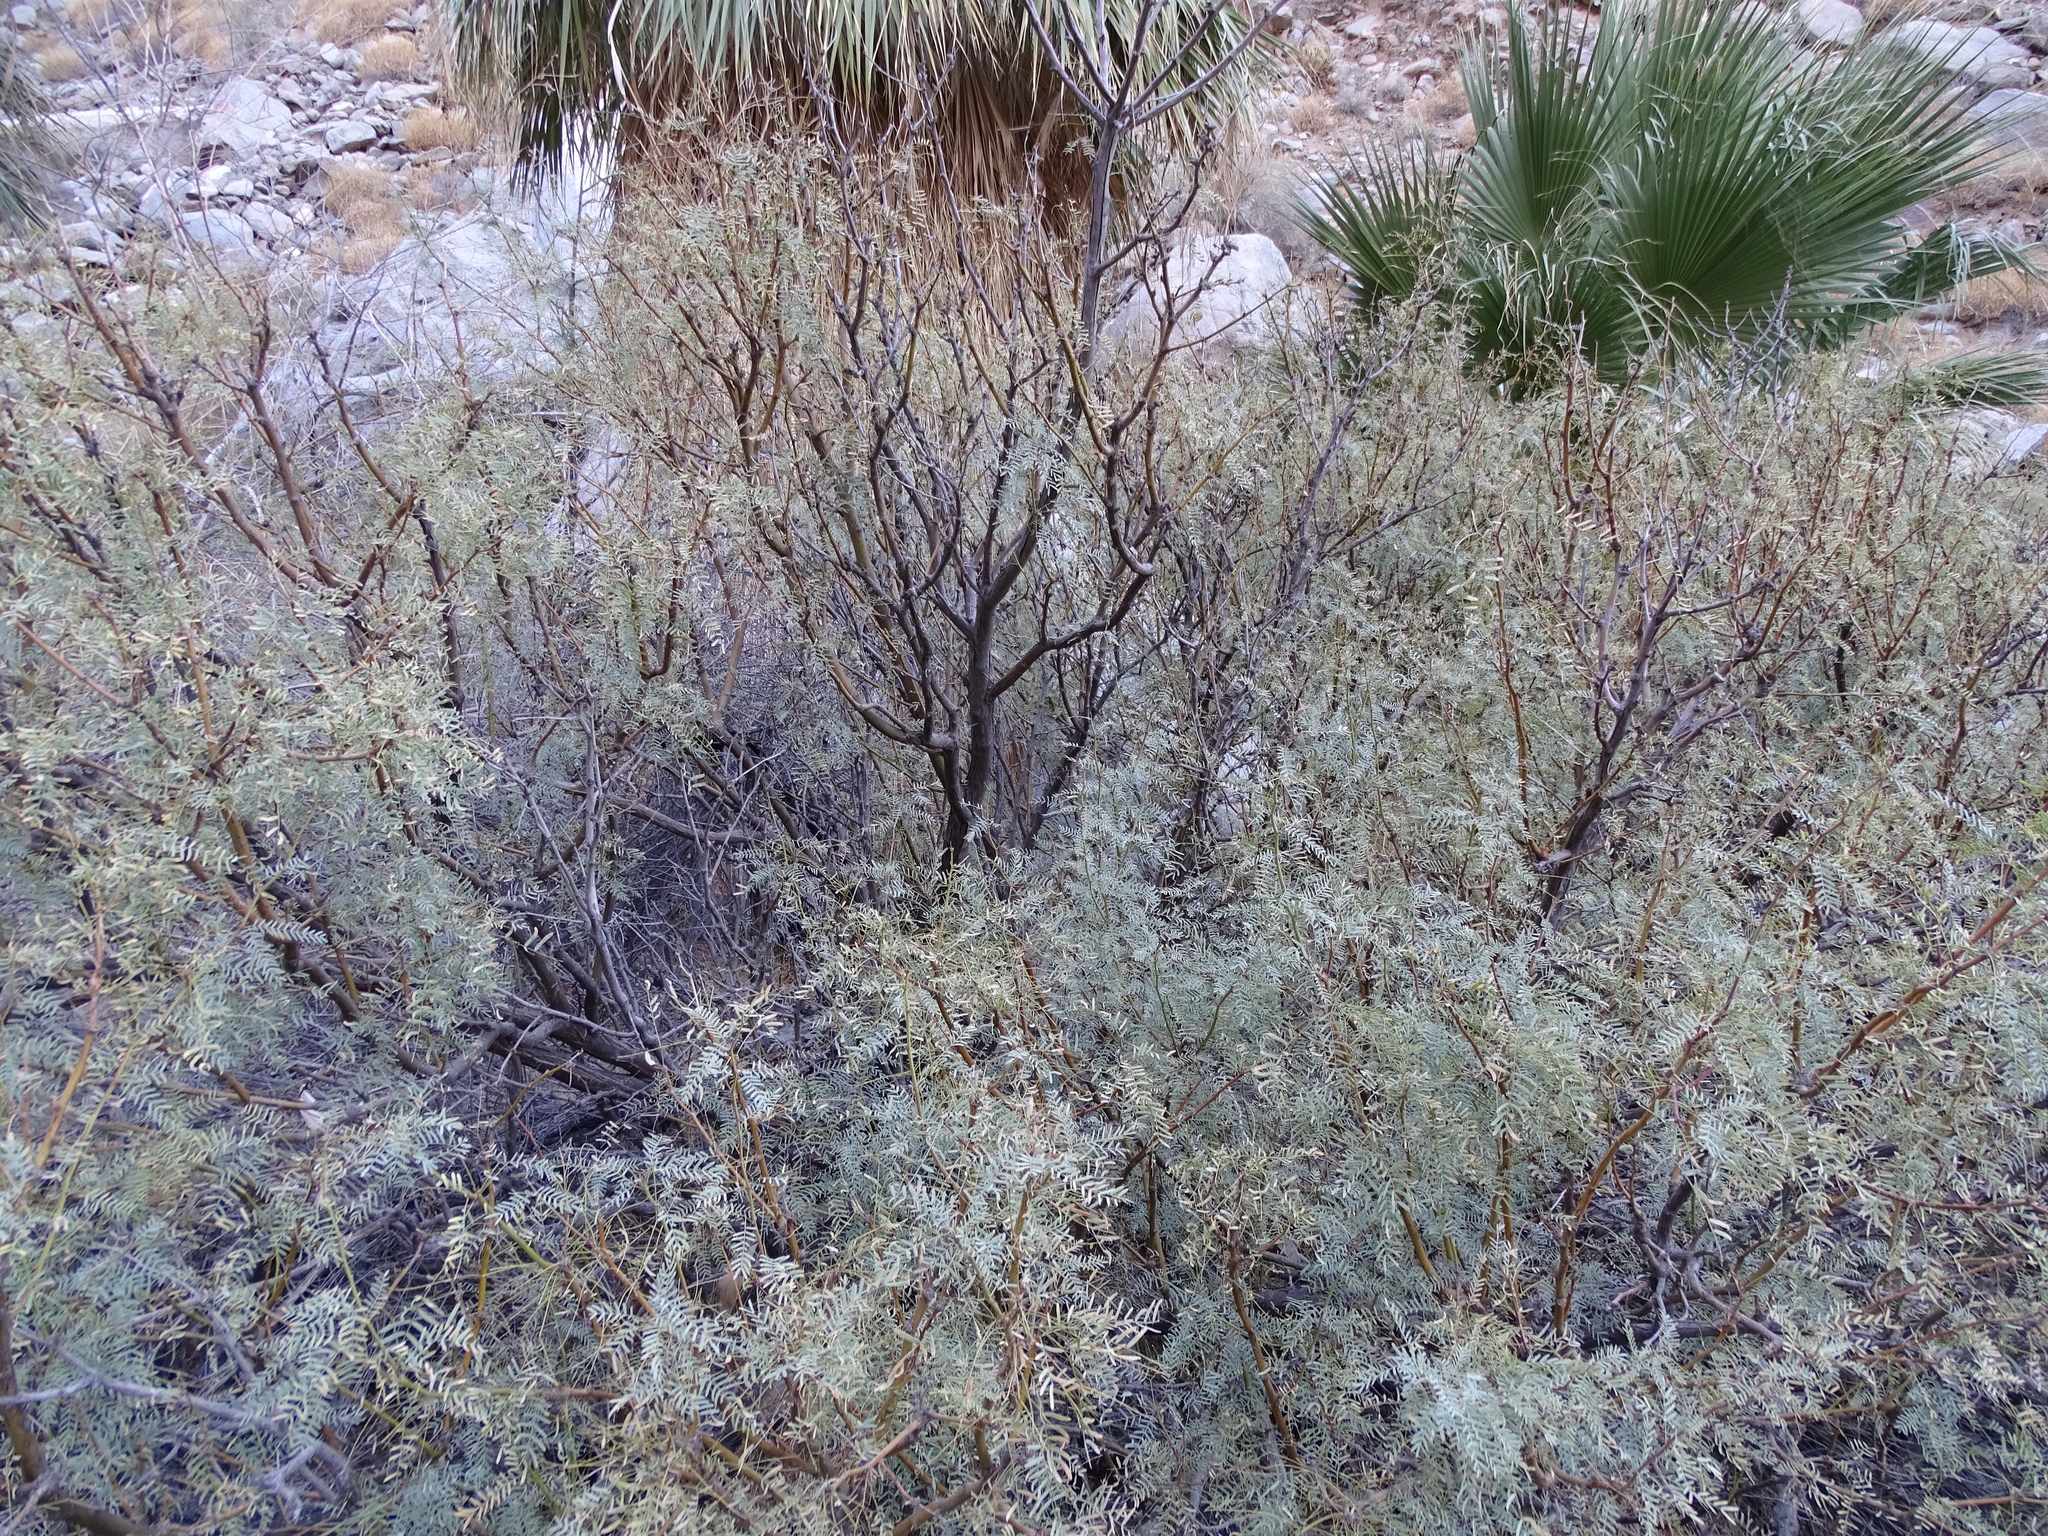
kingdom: Plantae
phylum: Tracheophyta
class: Magnoliopsida
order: Fabales
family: Fabaceae
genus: Prosopis
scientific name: Prosopis pubescens
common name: Screw-bean
